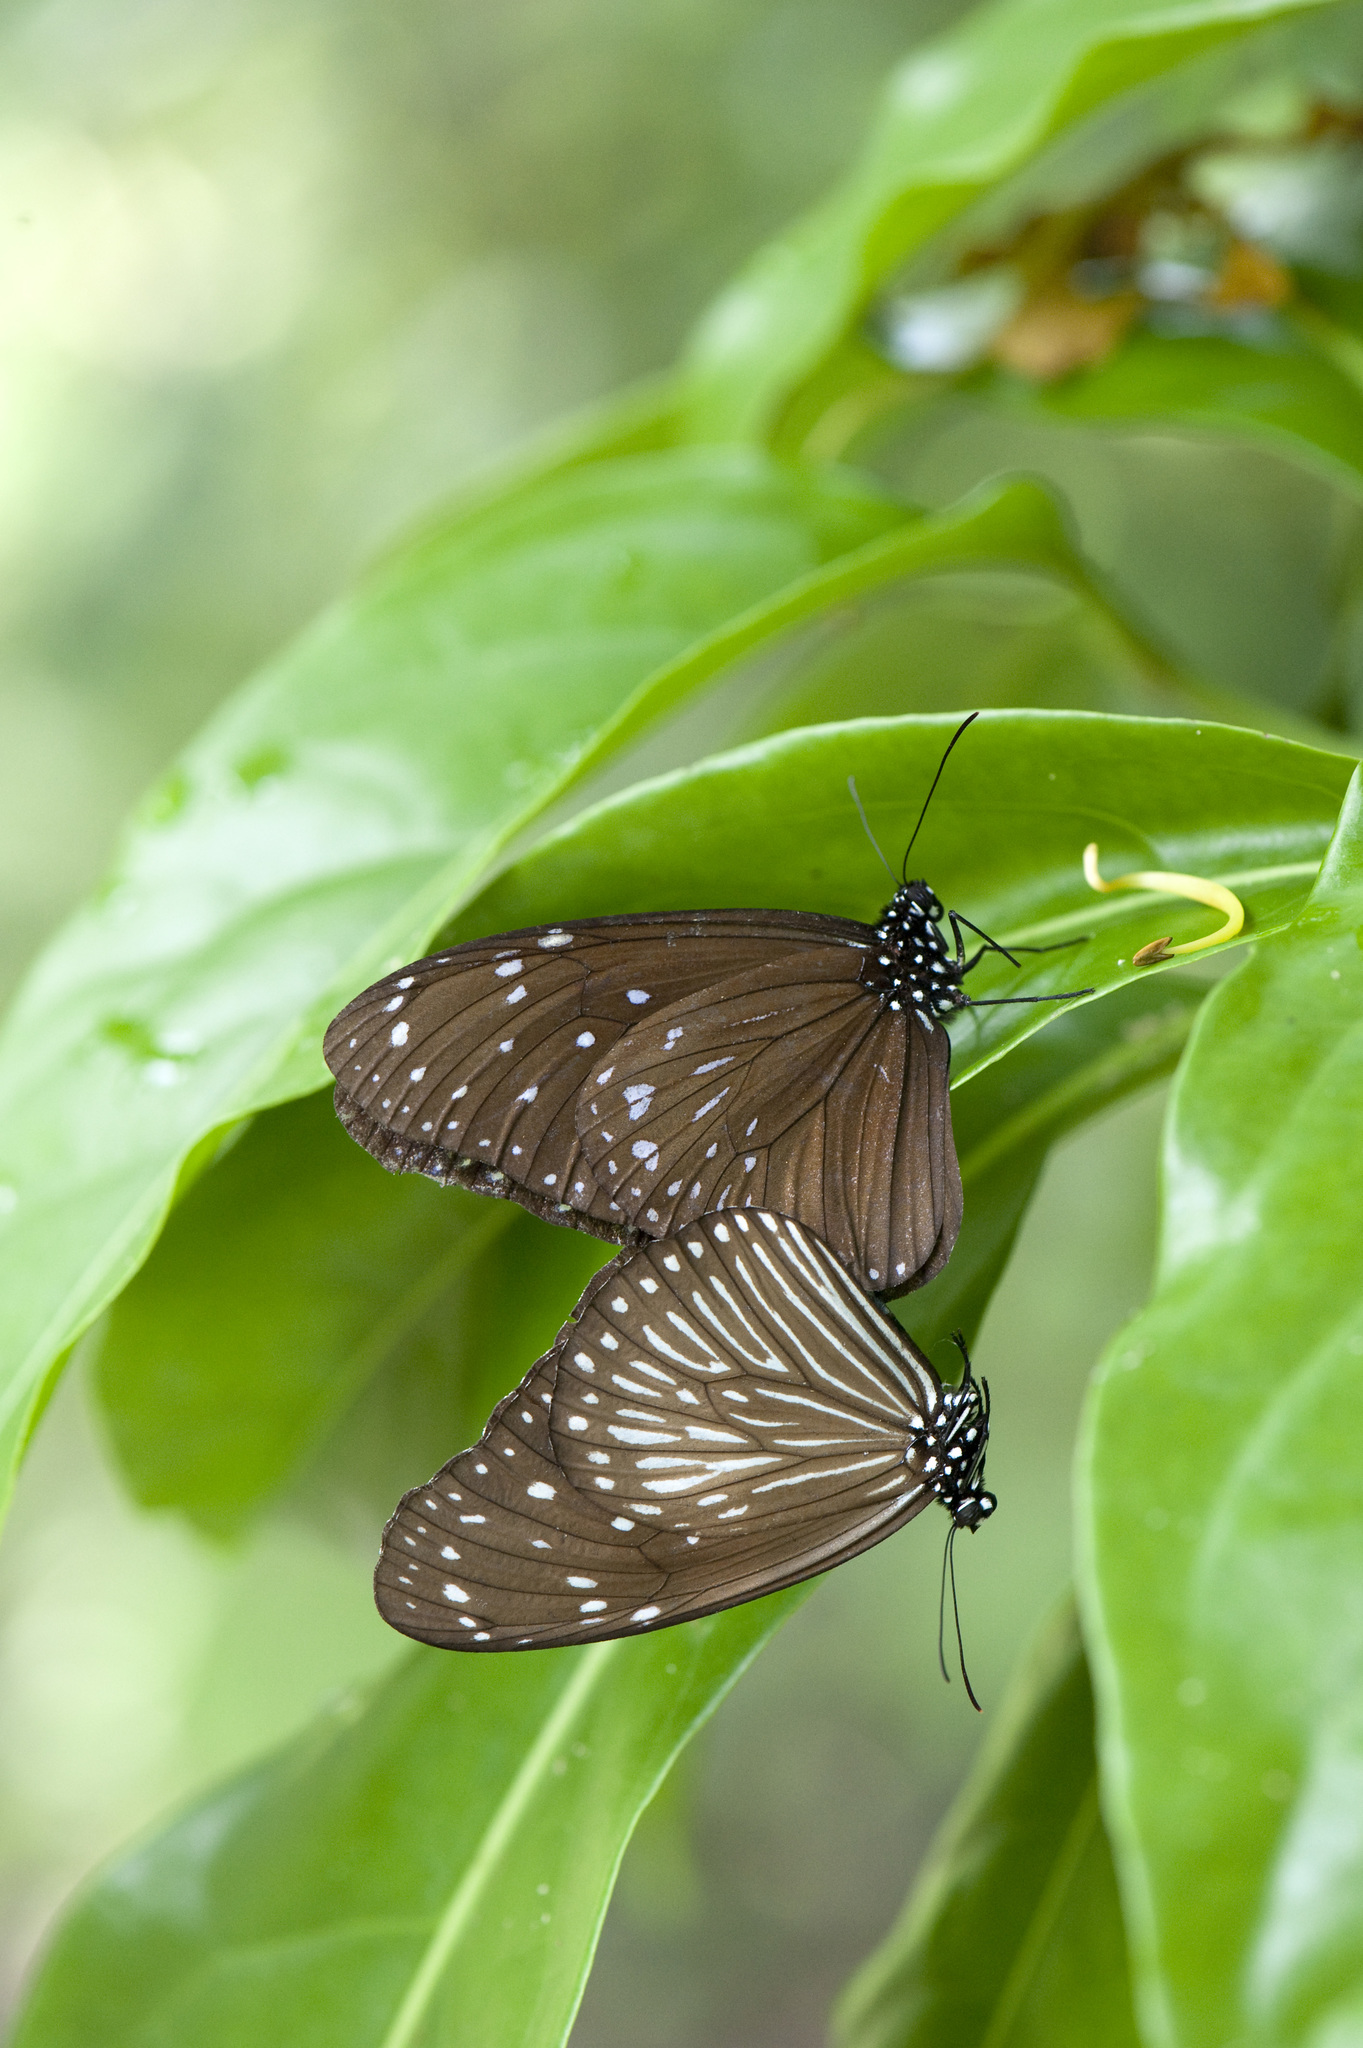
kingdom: Animalia
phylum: Arthropoda
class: Insecta
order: Lepidoptera
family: Nymphalidae
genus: Euploea
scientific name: Euploea mulciber
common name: Striped blue crow butterfly
